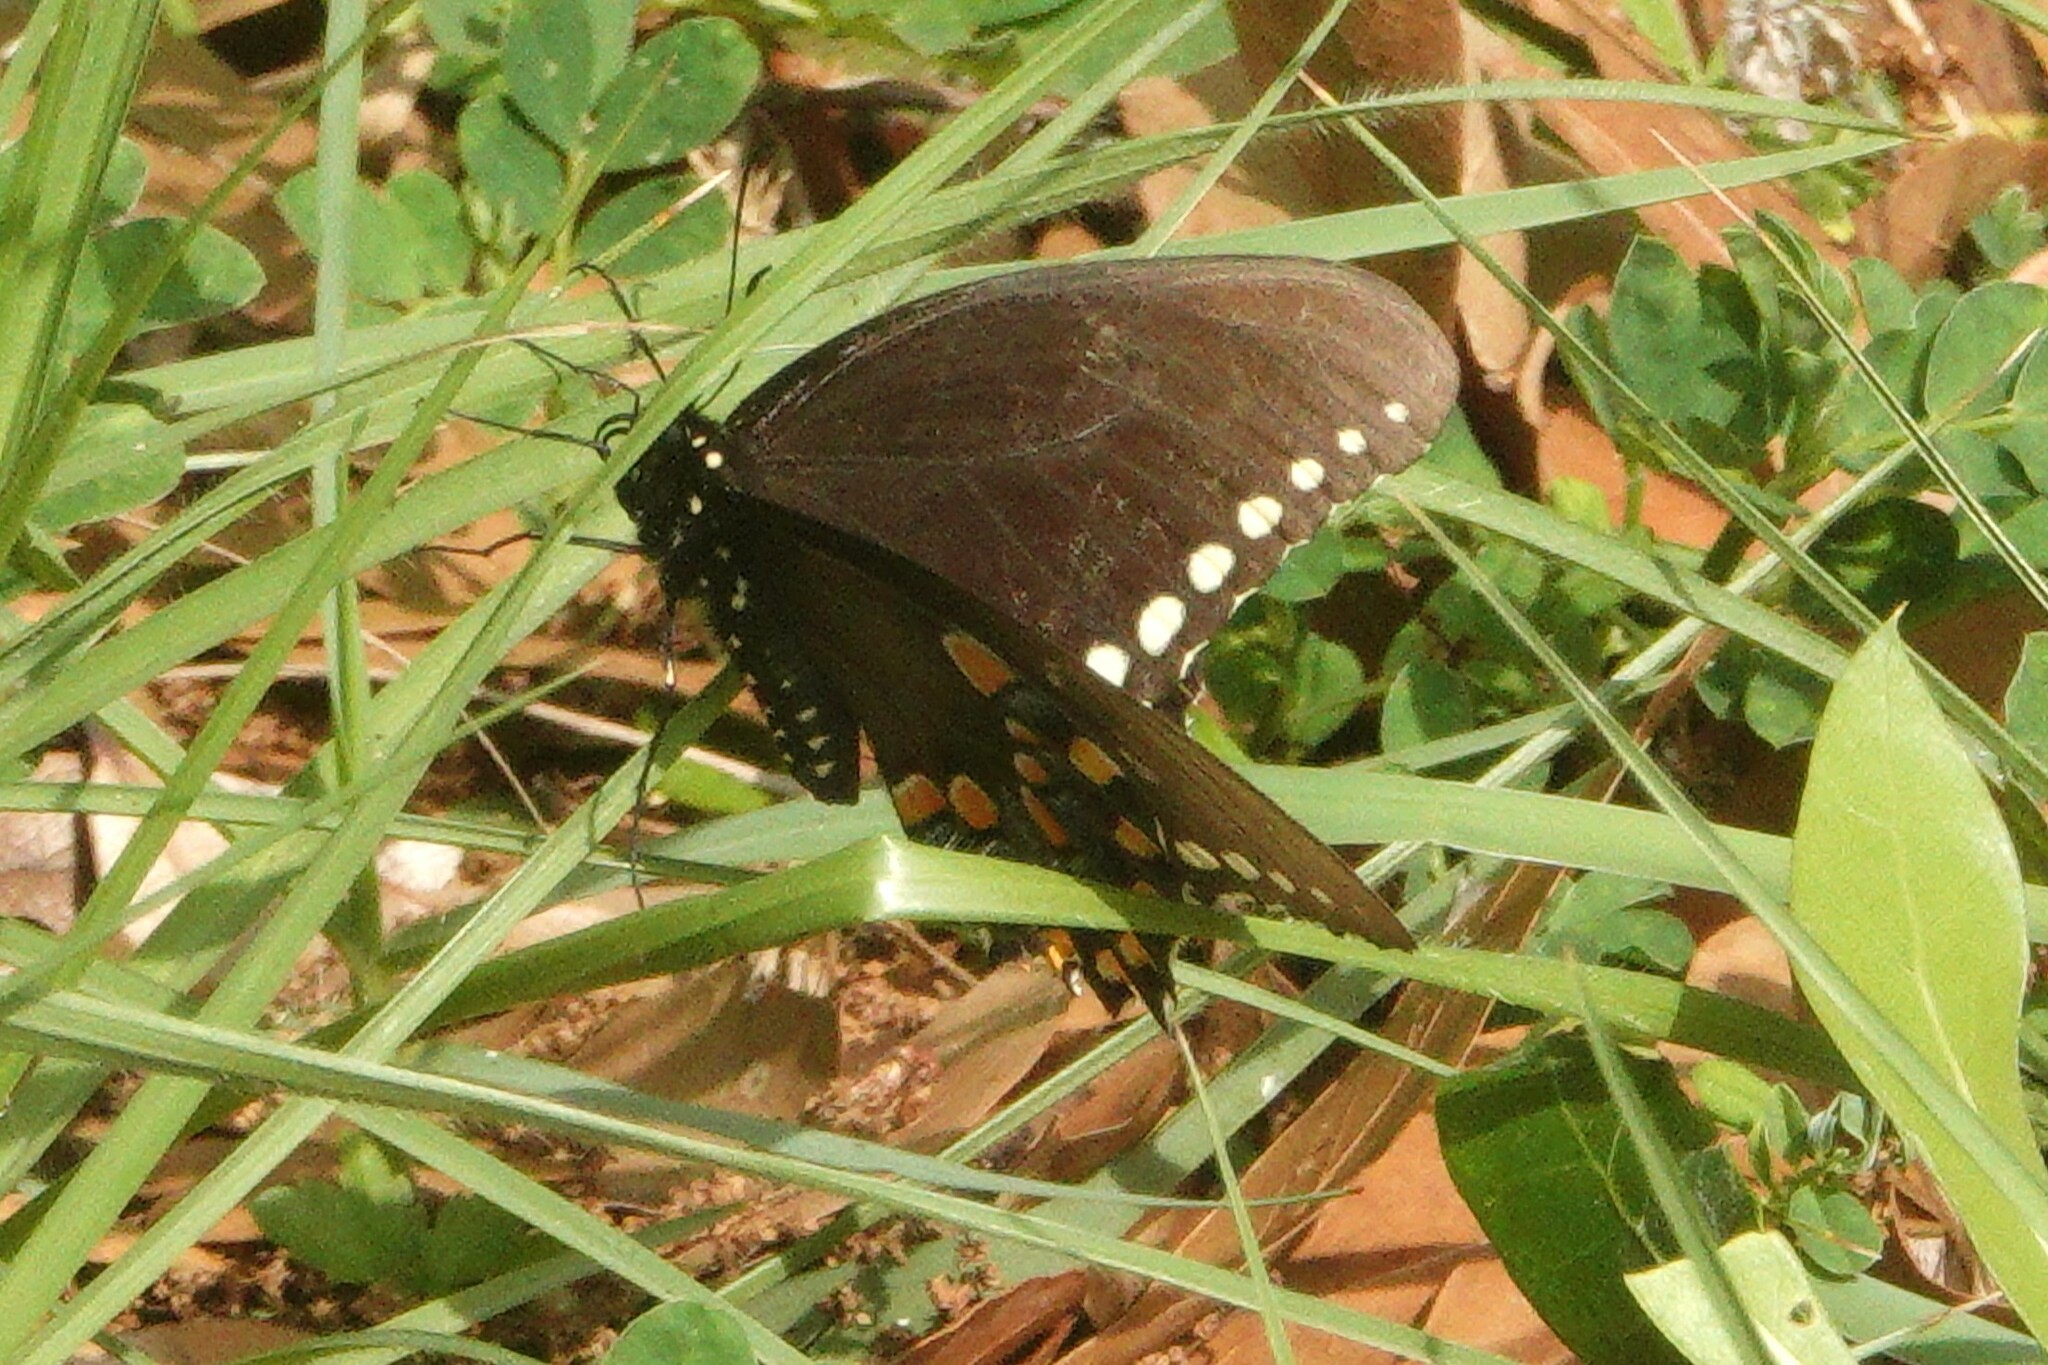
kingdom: Animalia
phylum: Arthropoda
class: Insecta
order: Lepidoptera
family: Papilionidae
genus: Papilio
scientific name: Papilio troilus
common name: Spicebush swallowtail
